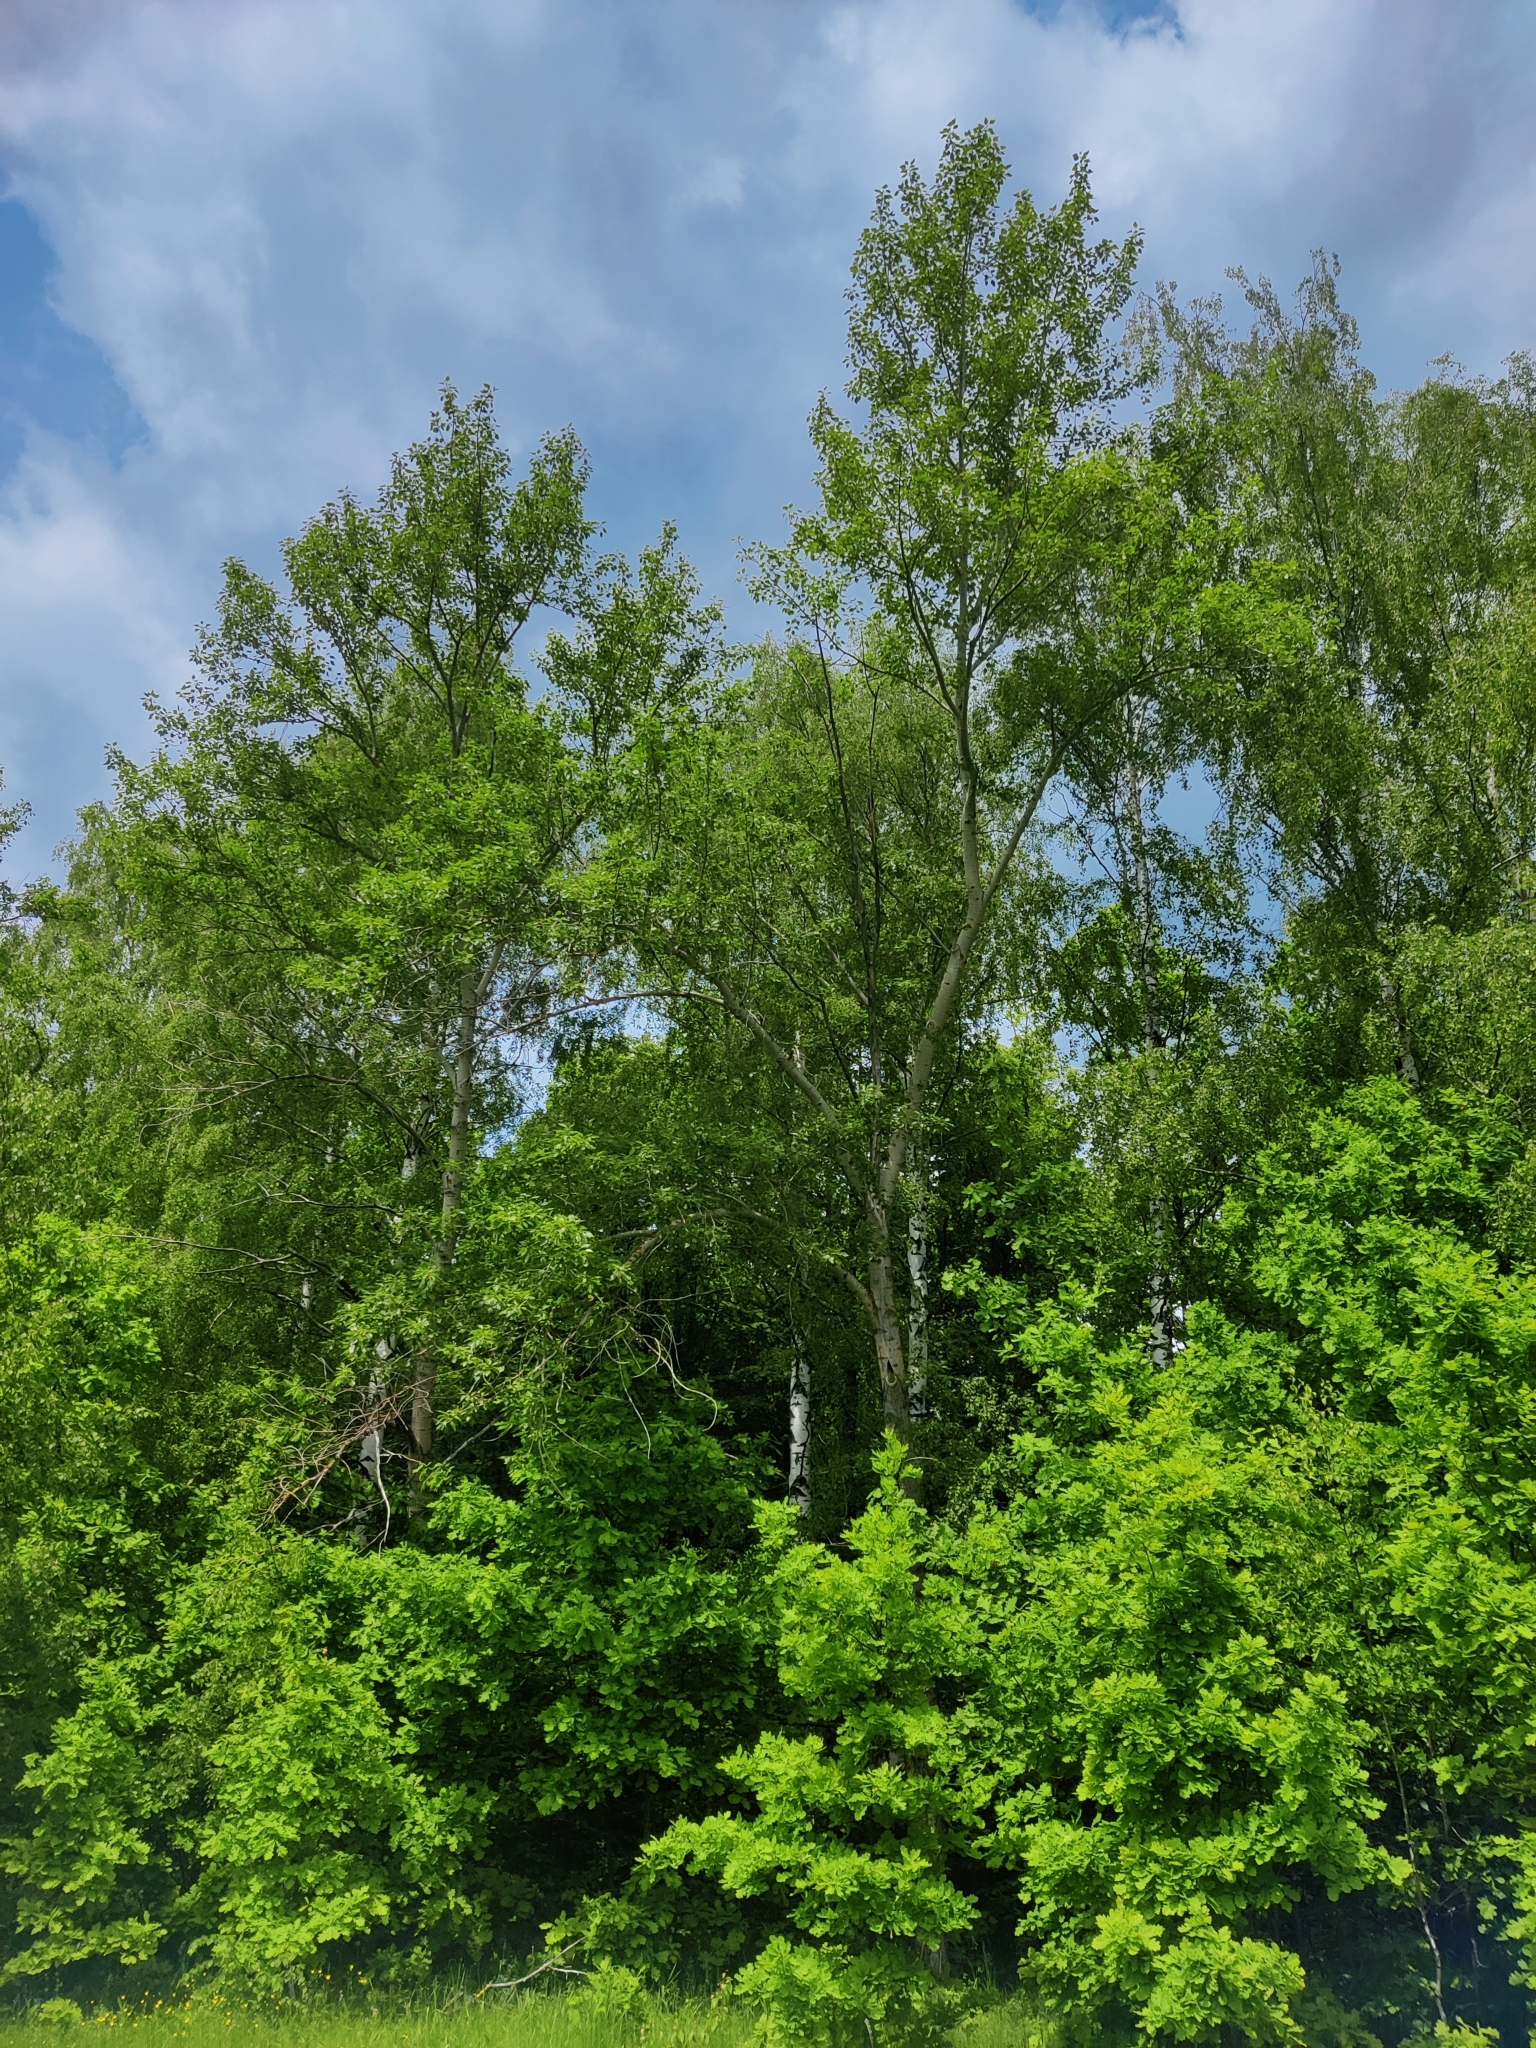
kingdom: Plantae
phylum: Tracheophyta
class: Magnoliopsida
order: Malpighiales
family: Salicaceae
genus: Populus
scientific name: Populus tremula
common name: European aspen
